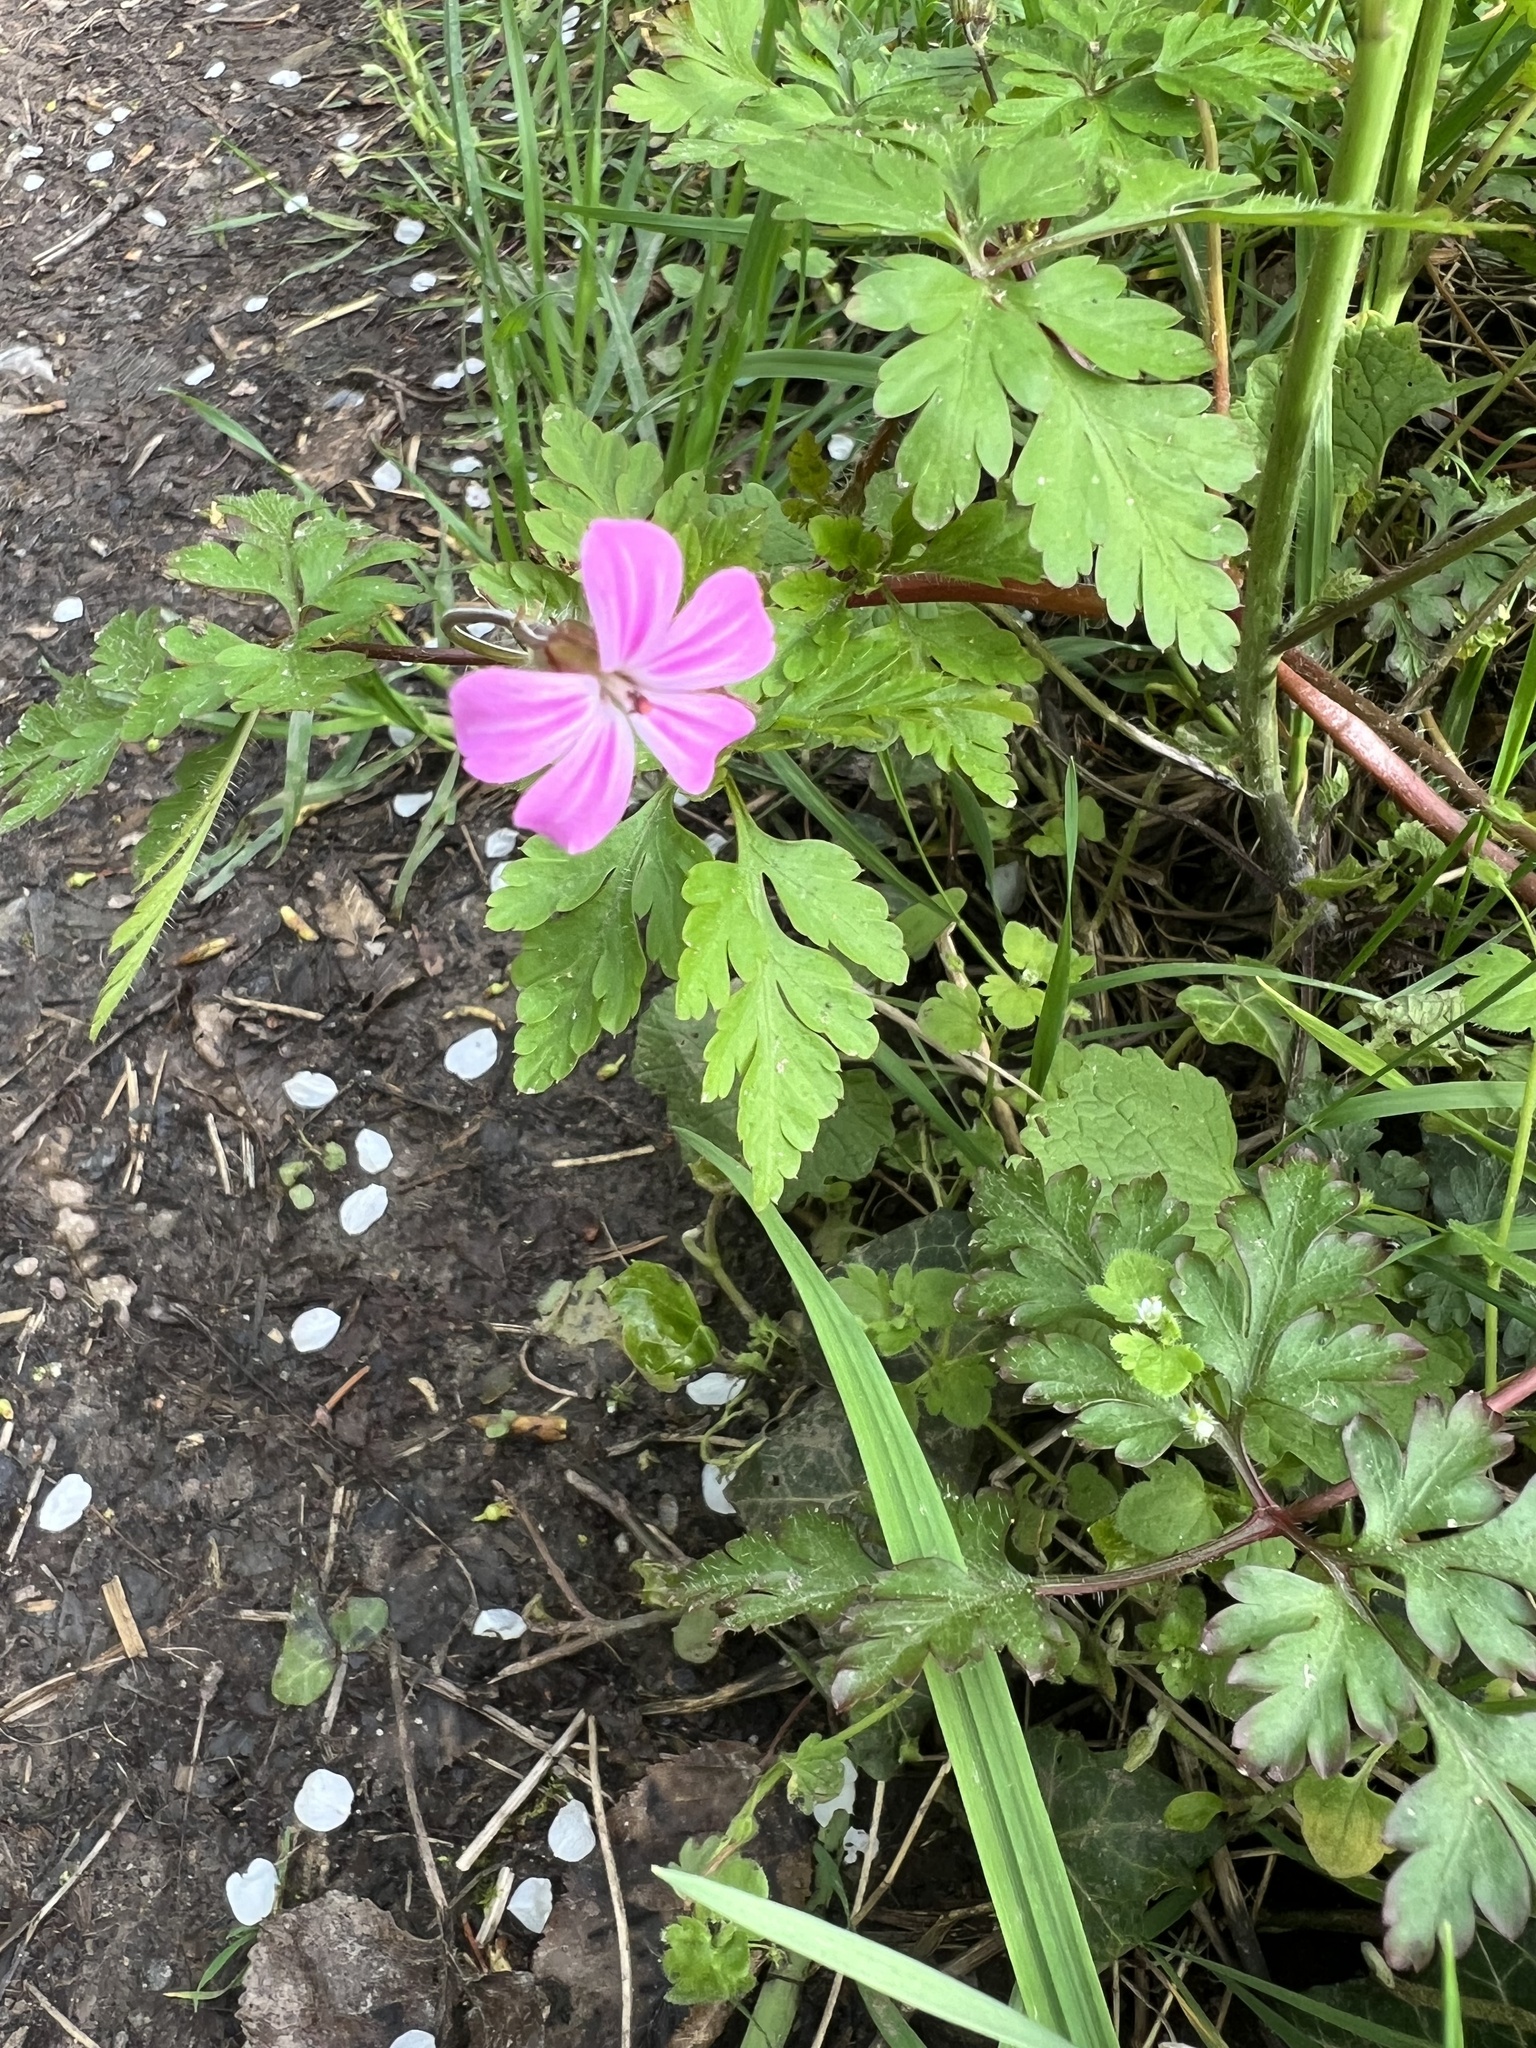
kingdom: Plantae
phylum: Tracheophyta
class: Magnoliopsida
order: Geraniales
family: Geraniaceae
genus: Geranium
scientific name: Geranium robertianum
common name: Herb-robert
